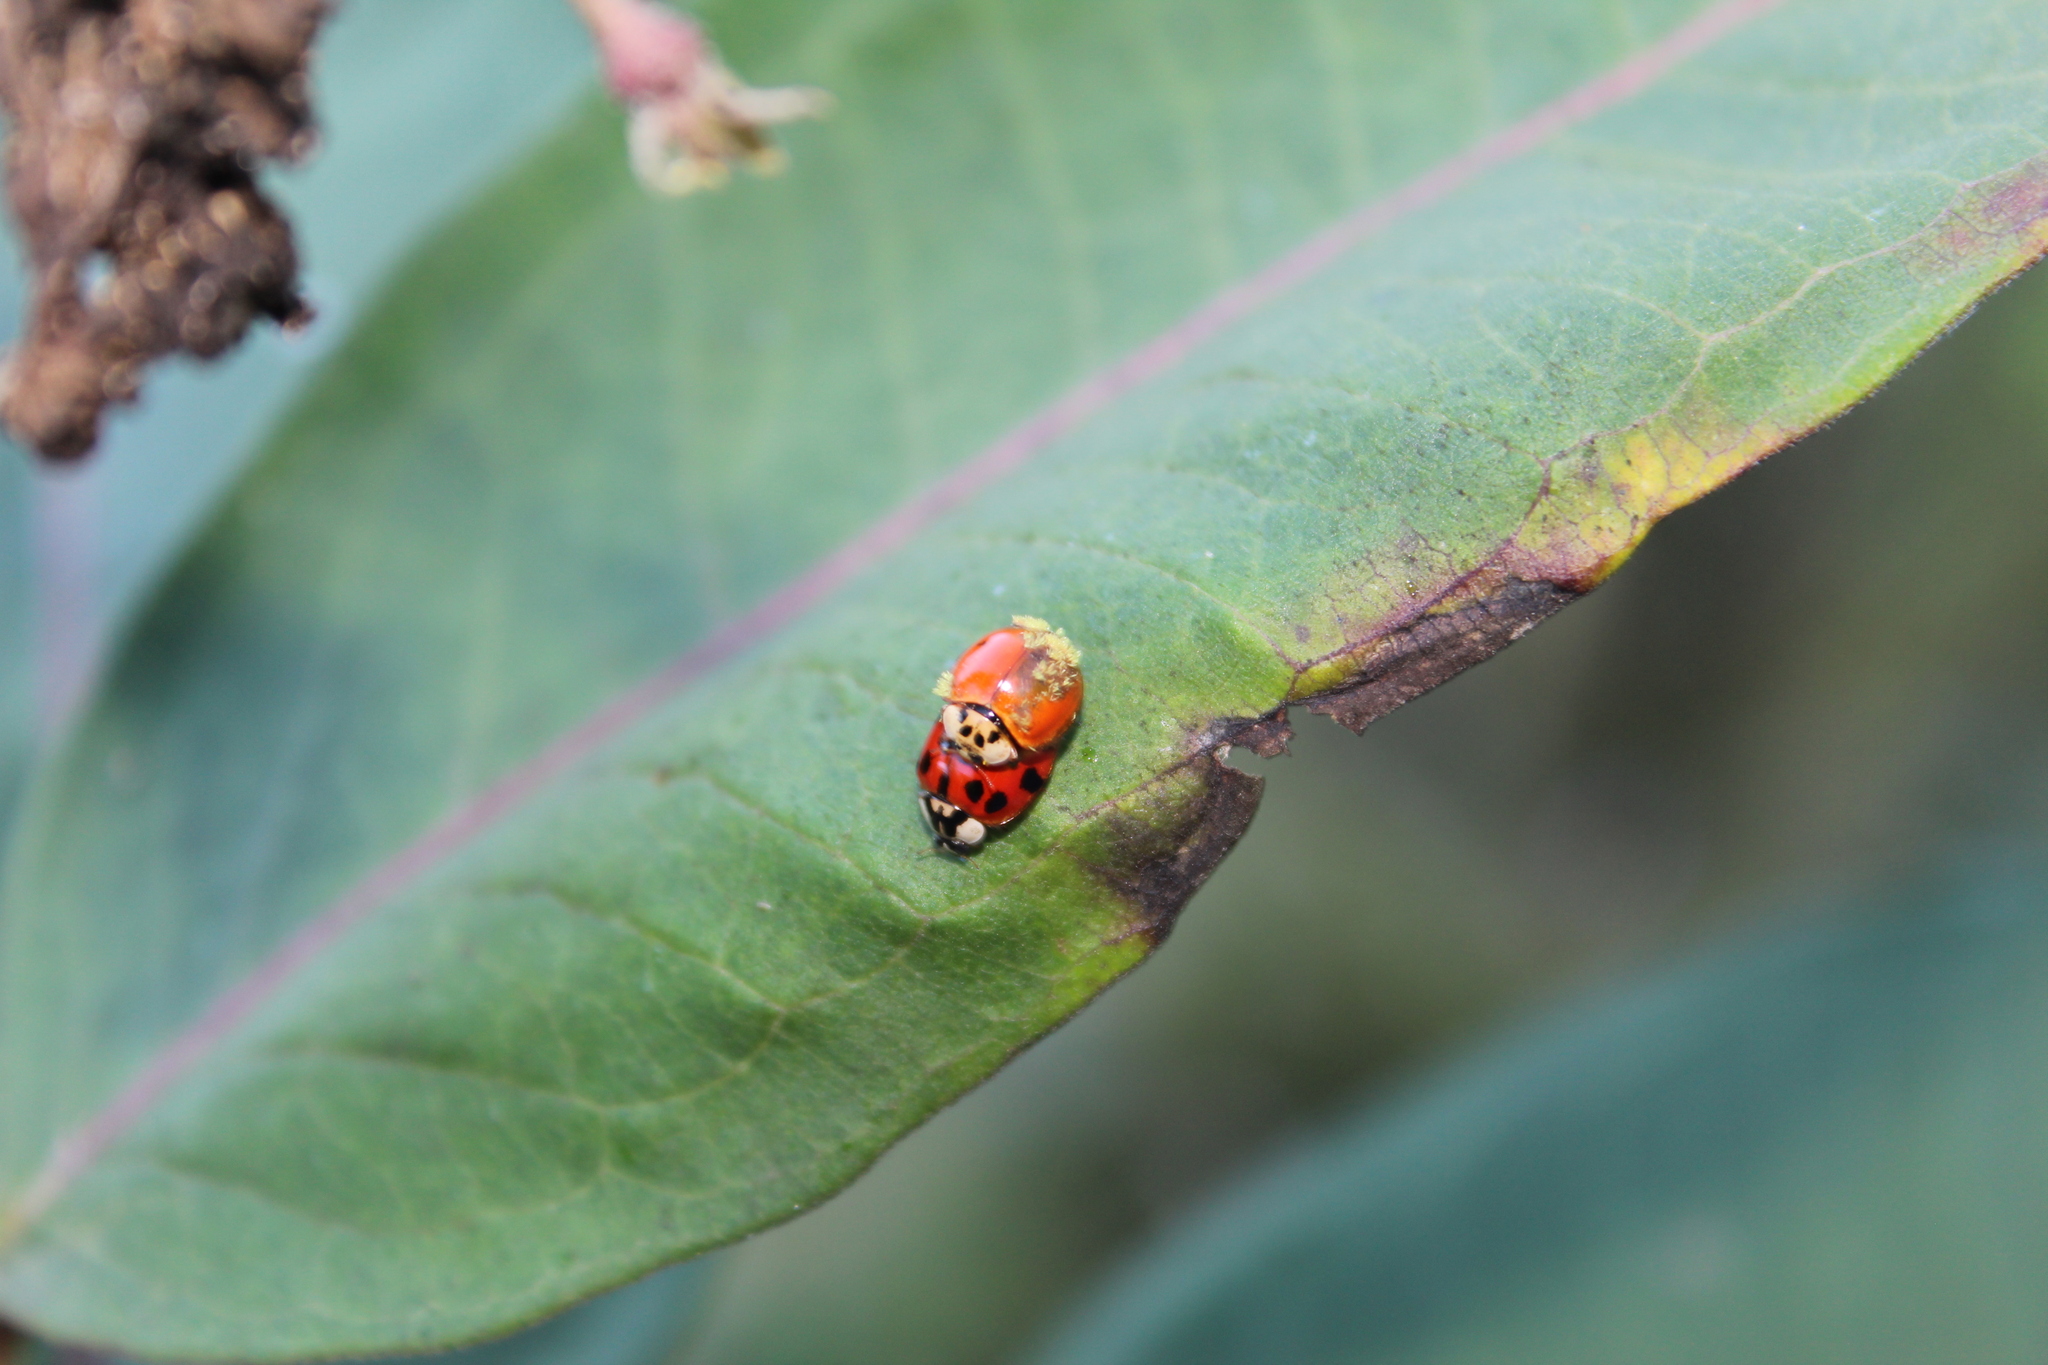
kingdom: Animalia
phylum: Arthropoda
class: Insecta
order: Coleoptera
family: Coccinellidae
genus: Harmonia
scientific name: Harmonia axyridis
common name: Harlequin ladybird
